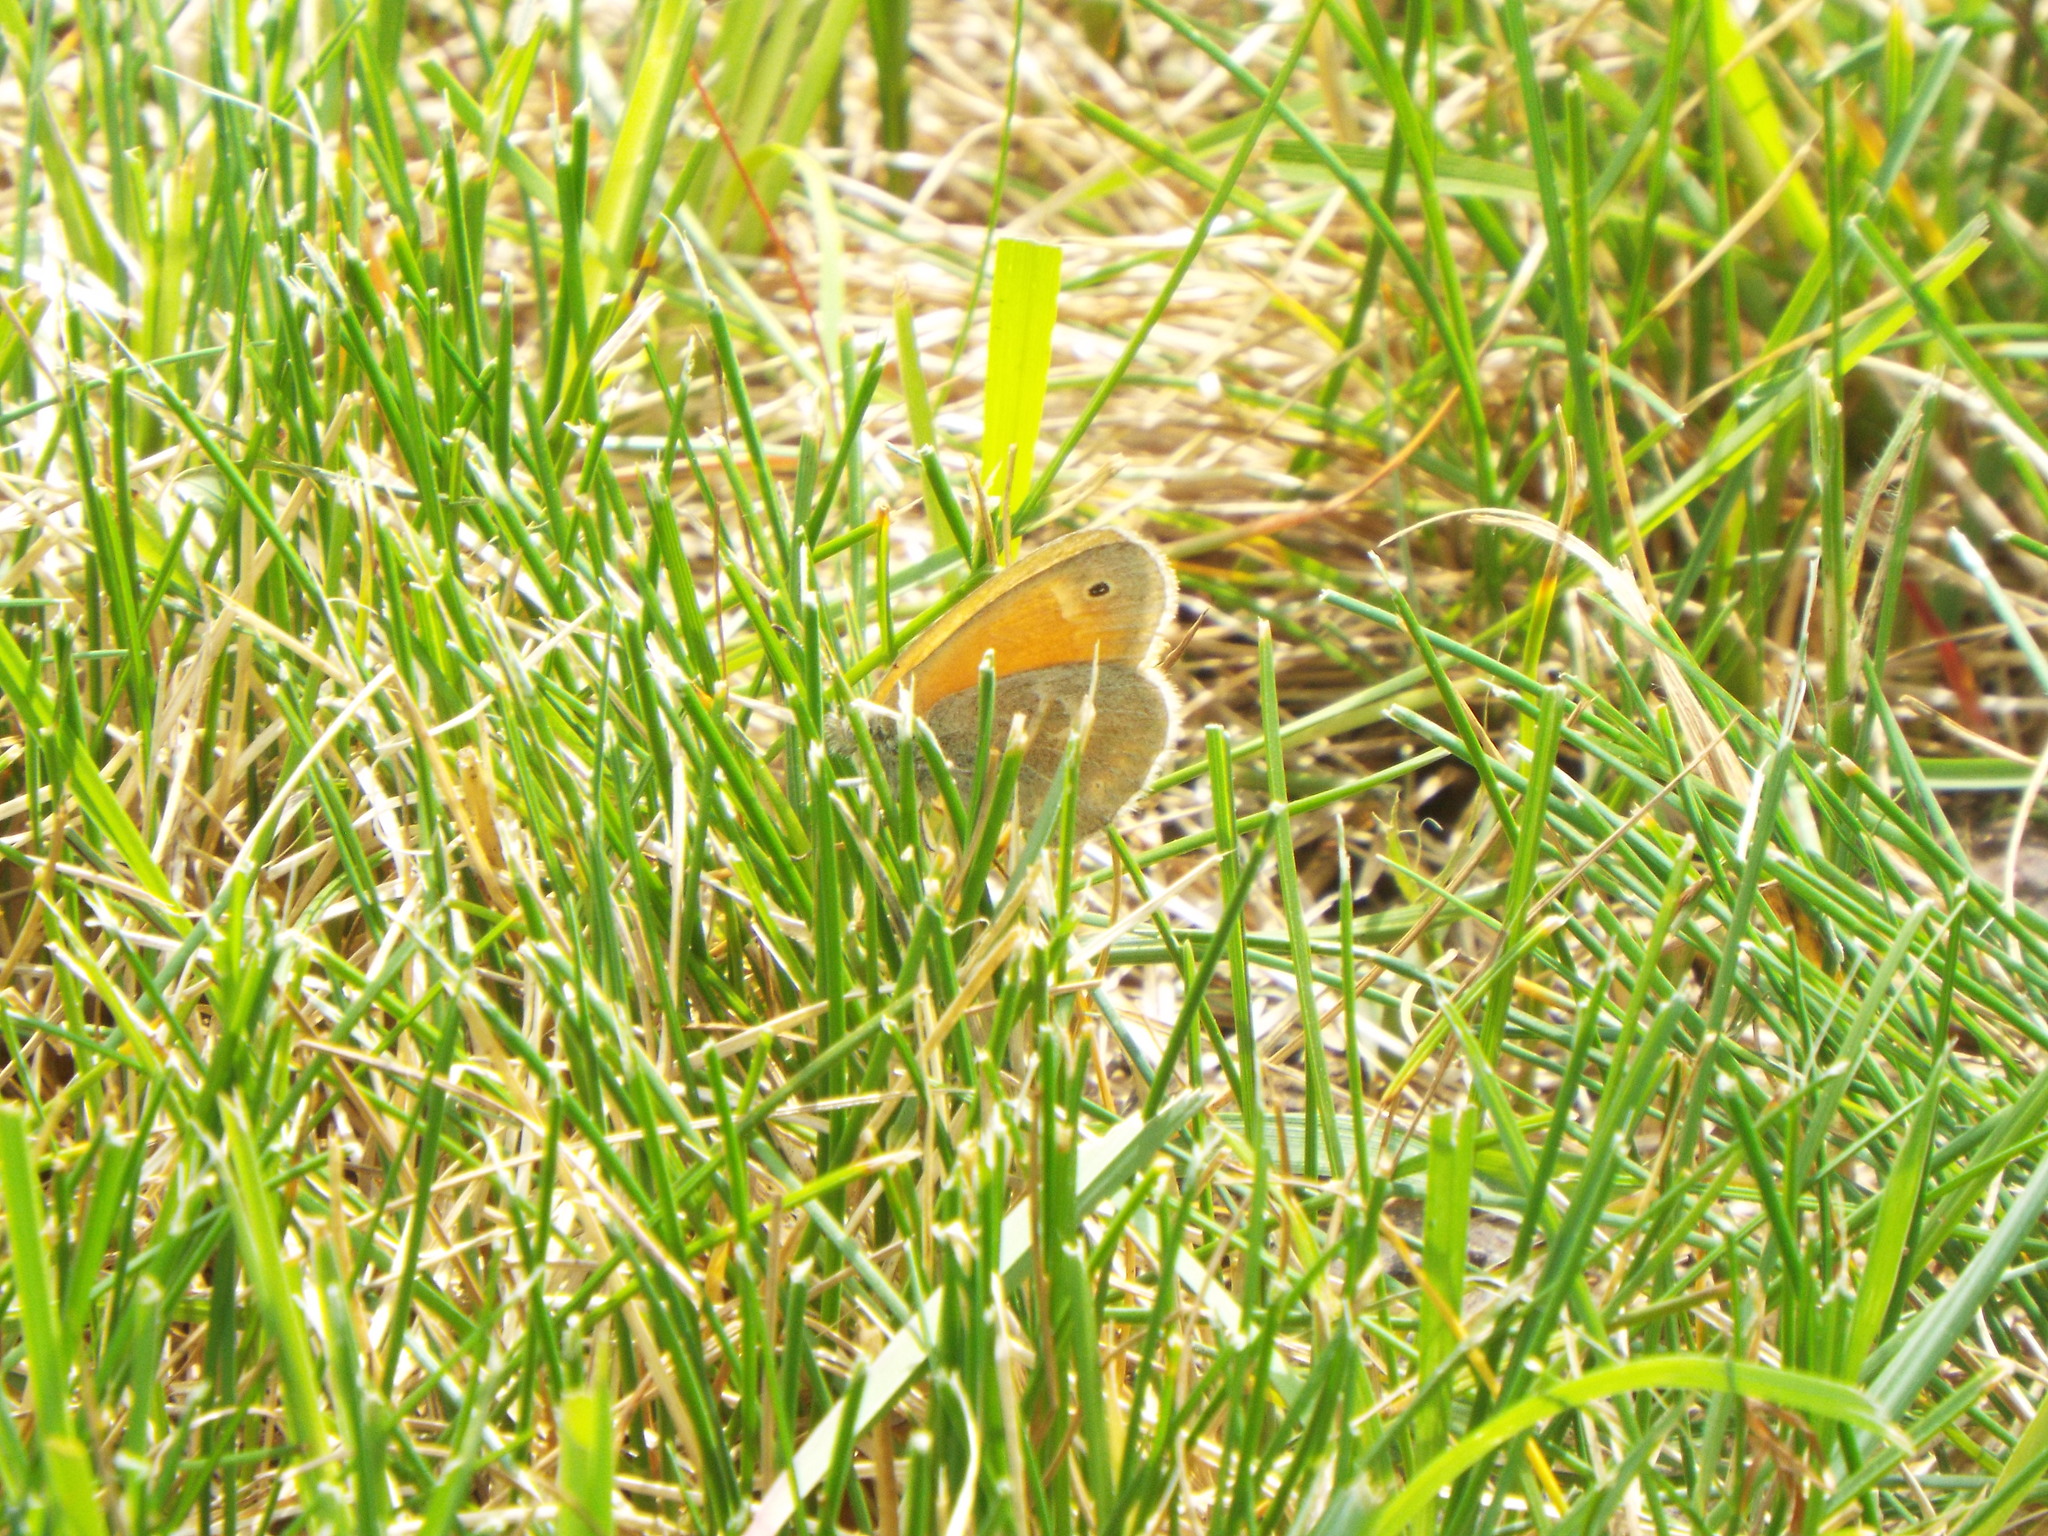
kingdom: Animalia
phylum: Arthropoda
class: Insecta
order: Lepidoptera
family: Nymphalidae
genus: Coenonympha
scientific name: Coenonympha california
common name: Common ringlet
